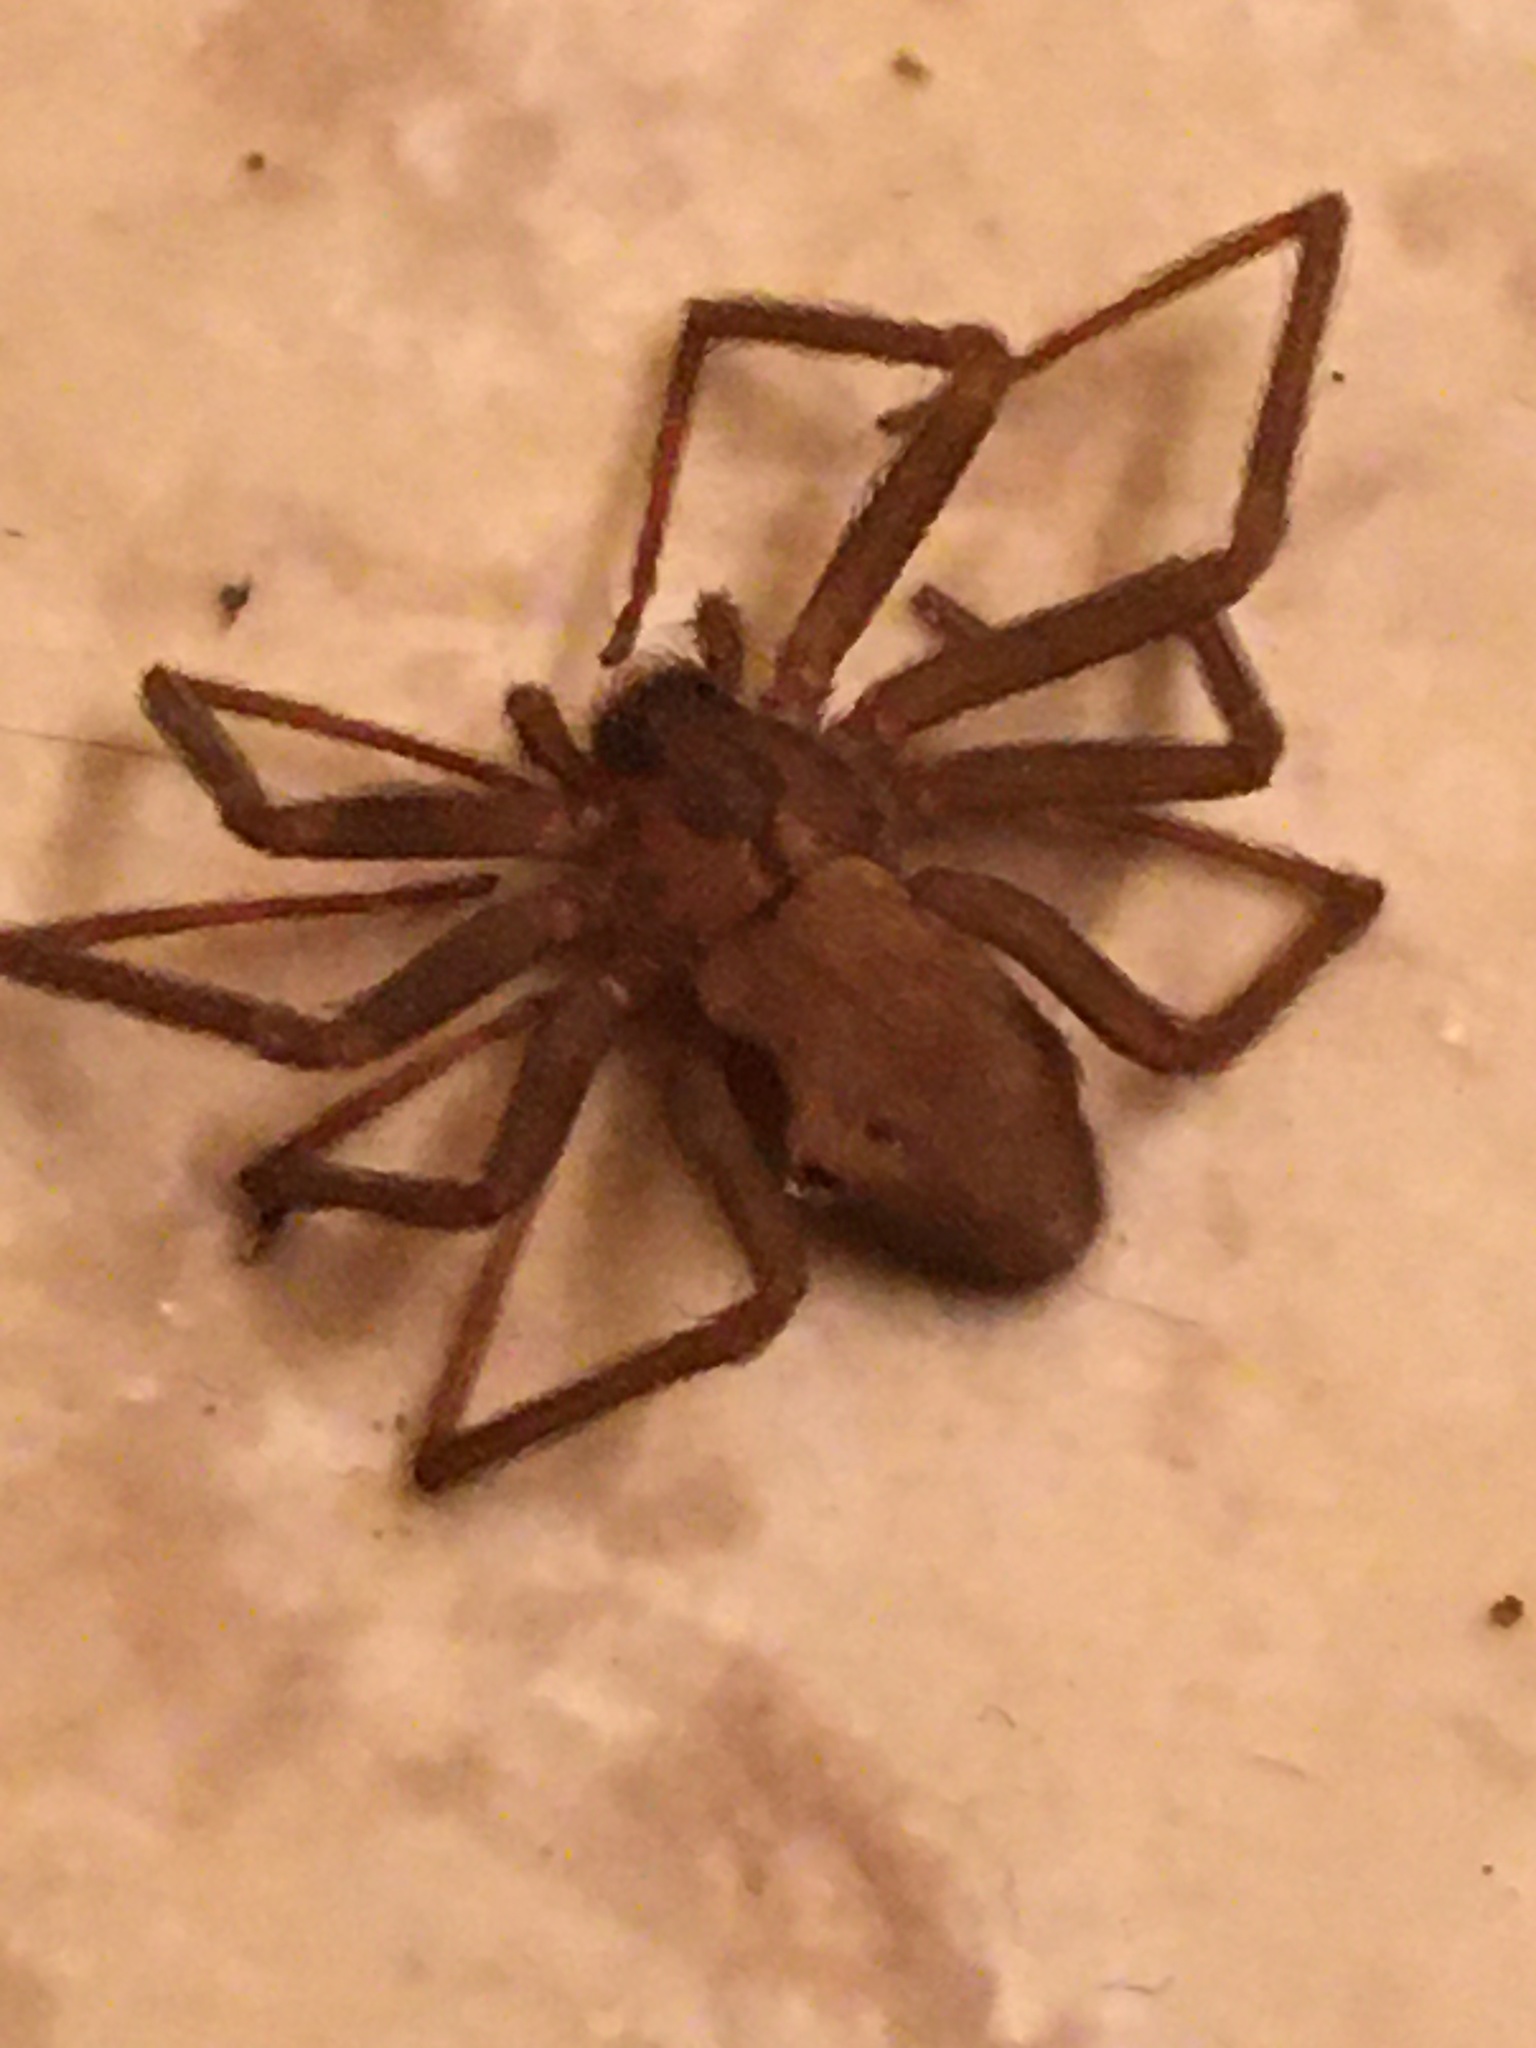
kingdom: Animalia
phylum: Arthropoda
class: Arachnida
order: Araneae
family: Sicariidae
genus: Loxosceles
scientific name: Loxosceles reclusa
